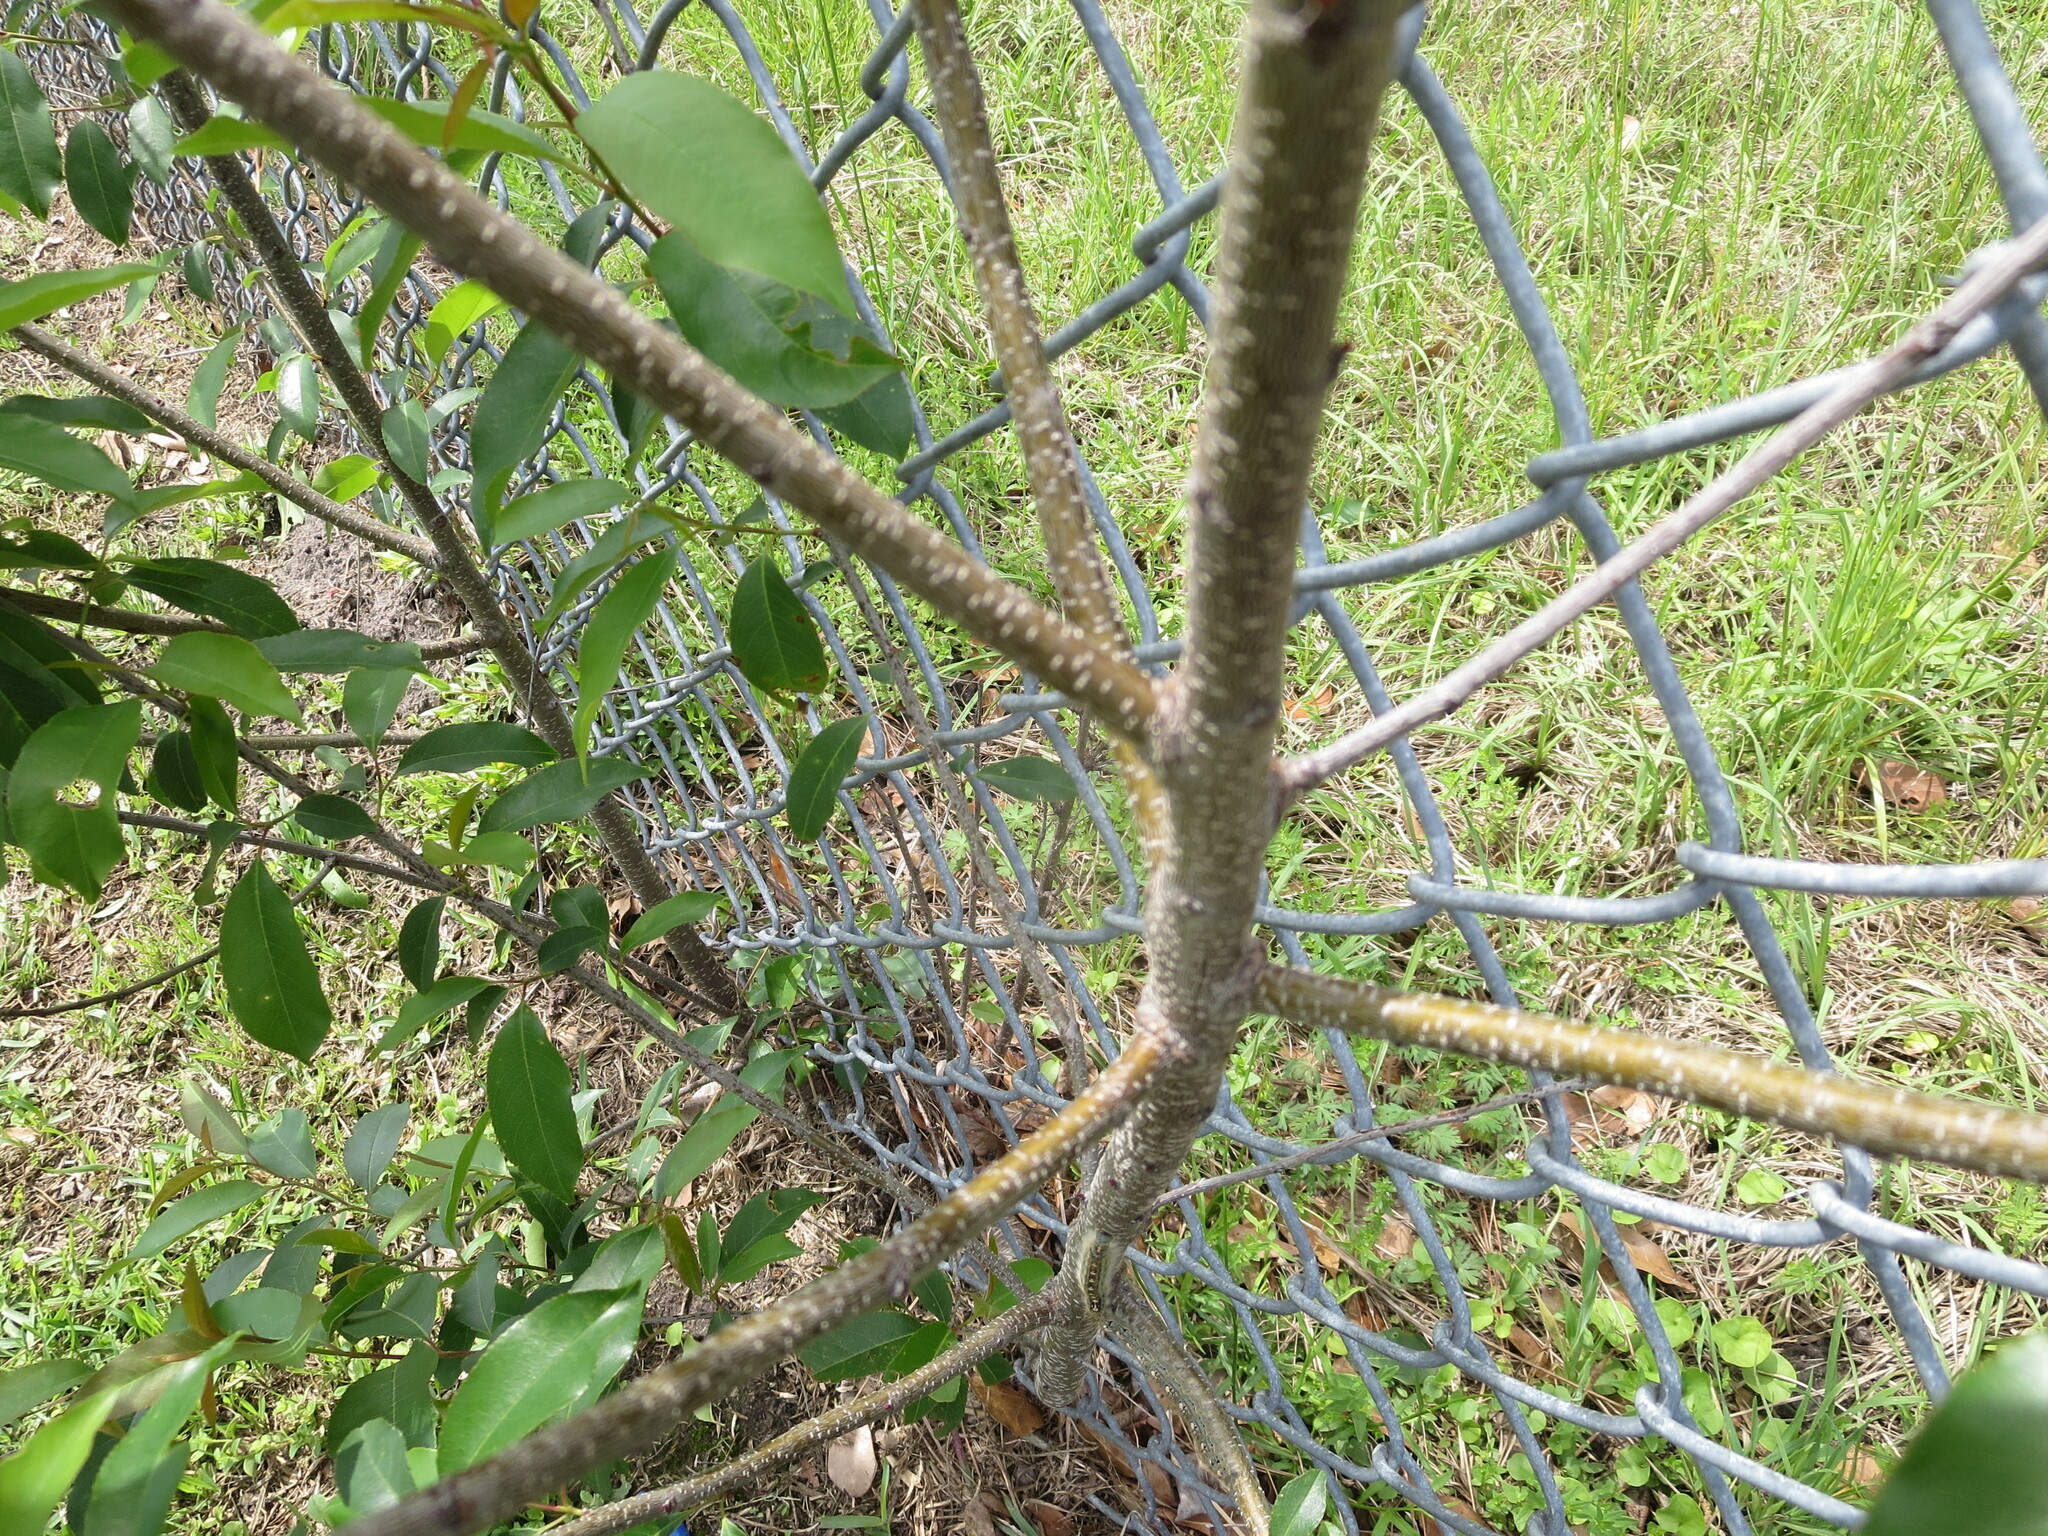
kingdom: Plantae
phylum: Tracheophyta
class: Magnoliopsida
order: Rosales
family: Rosaceae
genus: Prunus
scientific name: Prunus serotina
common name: Black cherry
